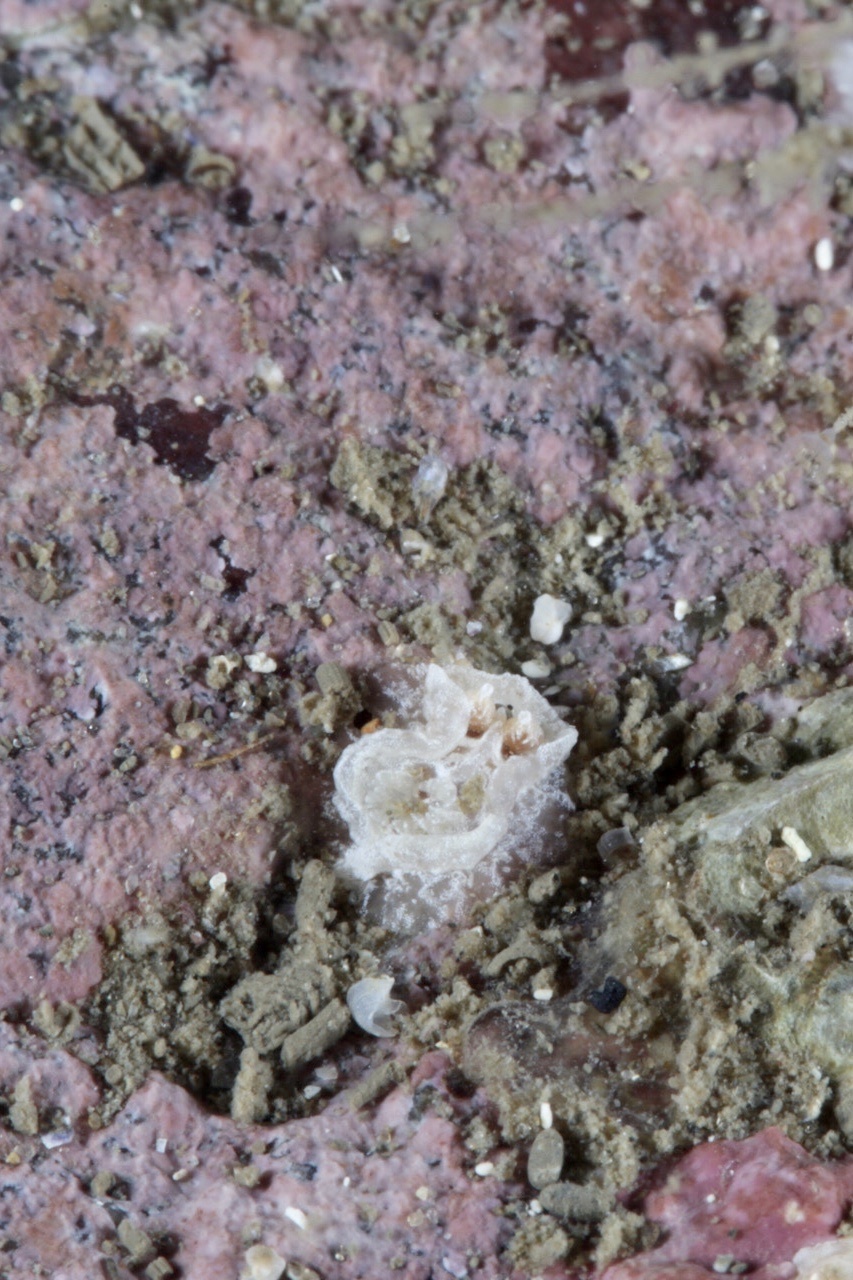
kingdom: Animalia
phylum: Mollusca
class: Gastropoda
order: Nudibranchia
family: Goniodorididae
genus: Pelagella
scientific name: Pelagella castanea
